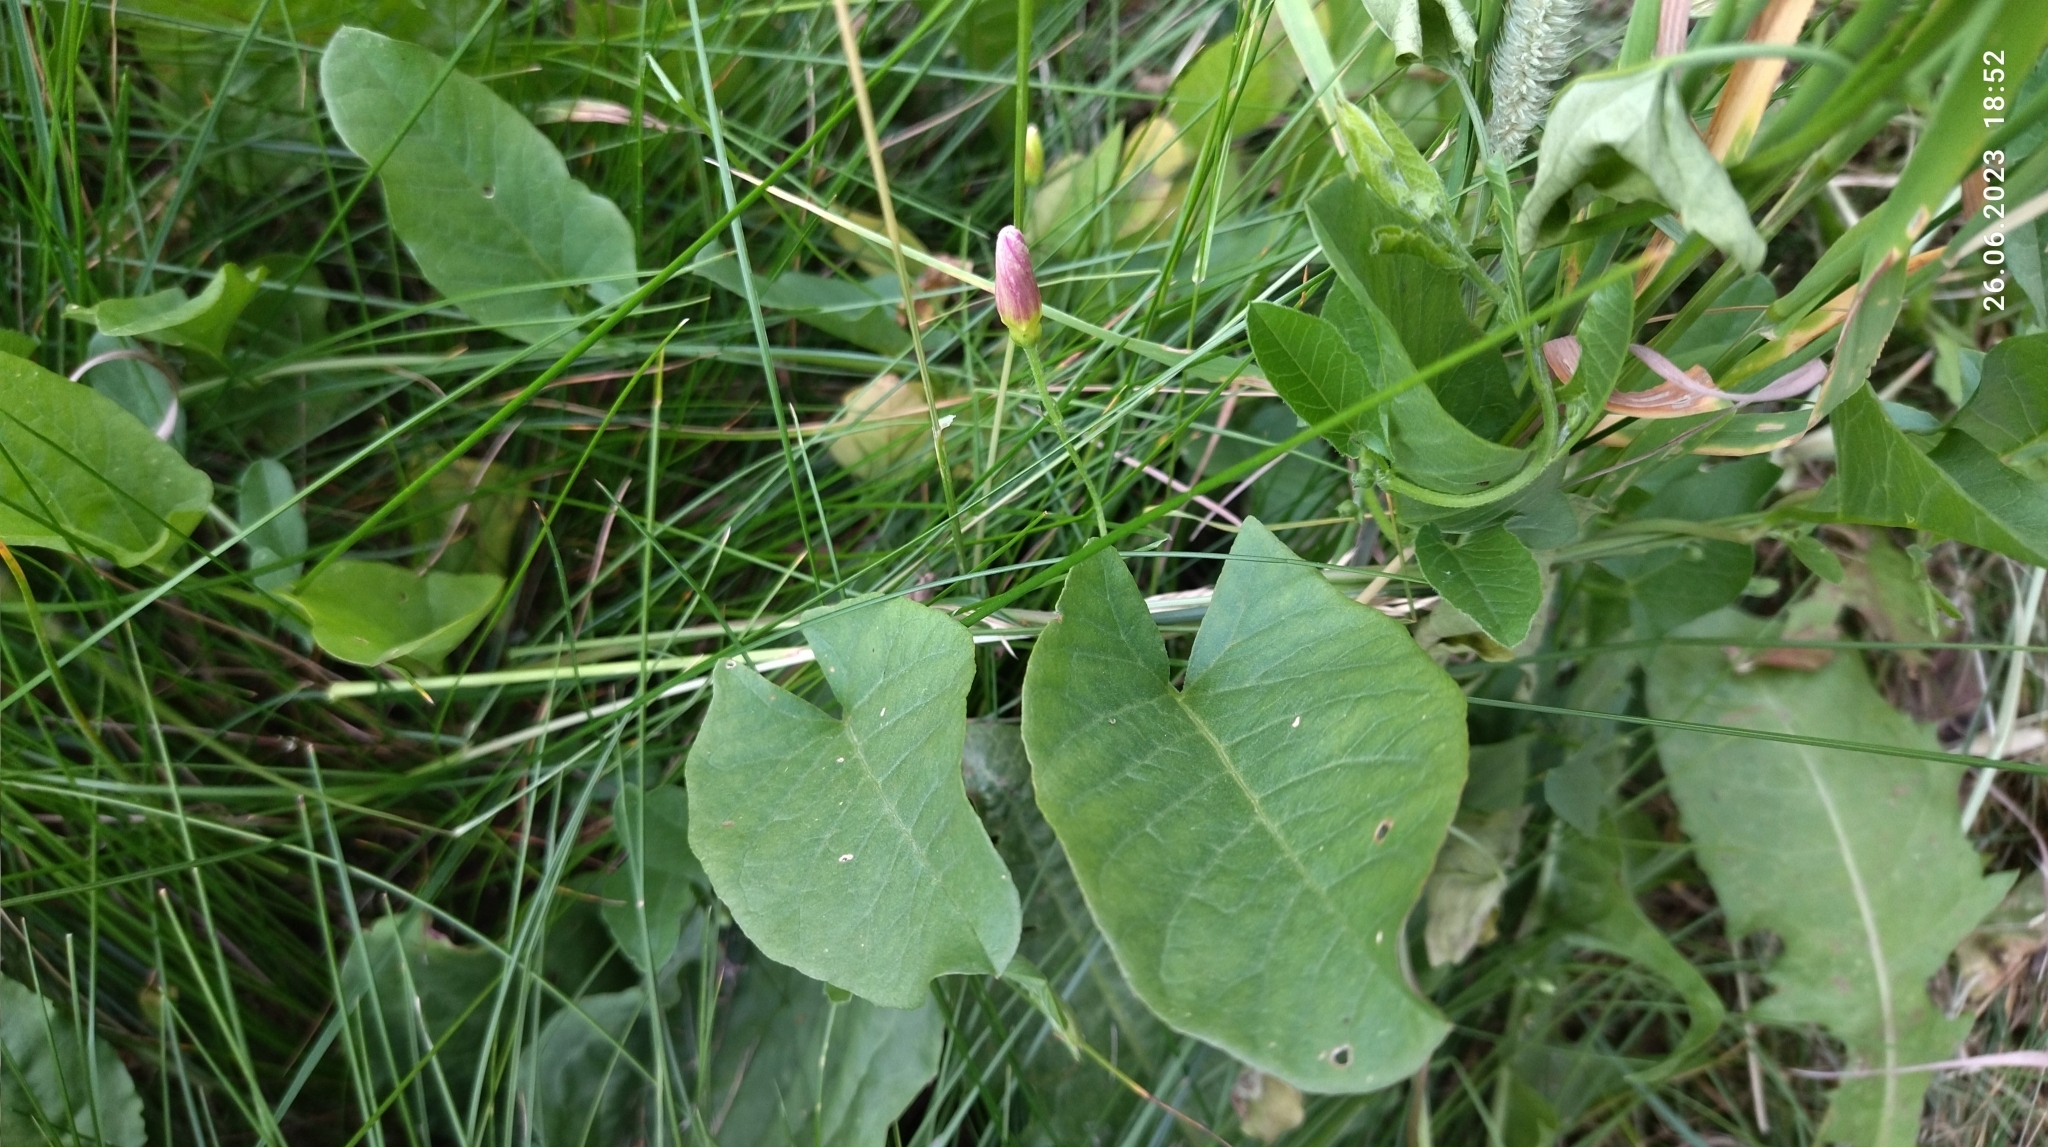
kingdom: Plantae
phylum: Tracheophyta
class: Magnoliopsida
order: Solanales
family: Convolvulaceae
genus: Convolvulus
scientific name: Convolvulus arvensis
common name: Field bindweed
